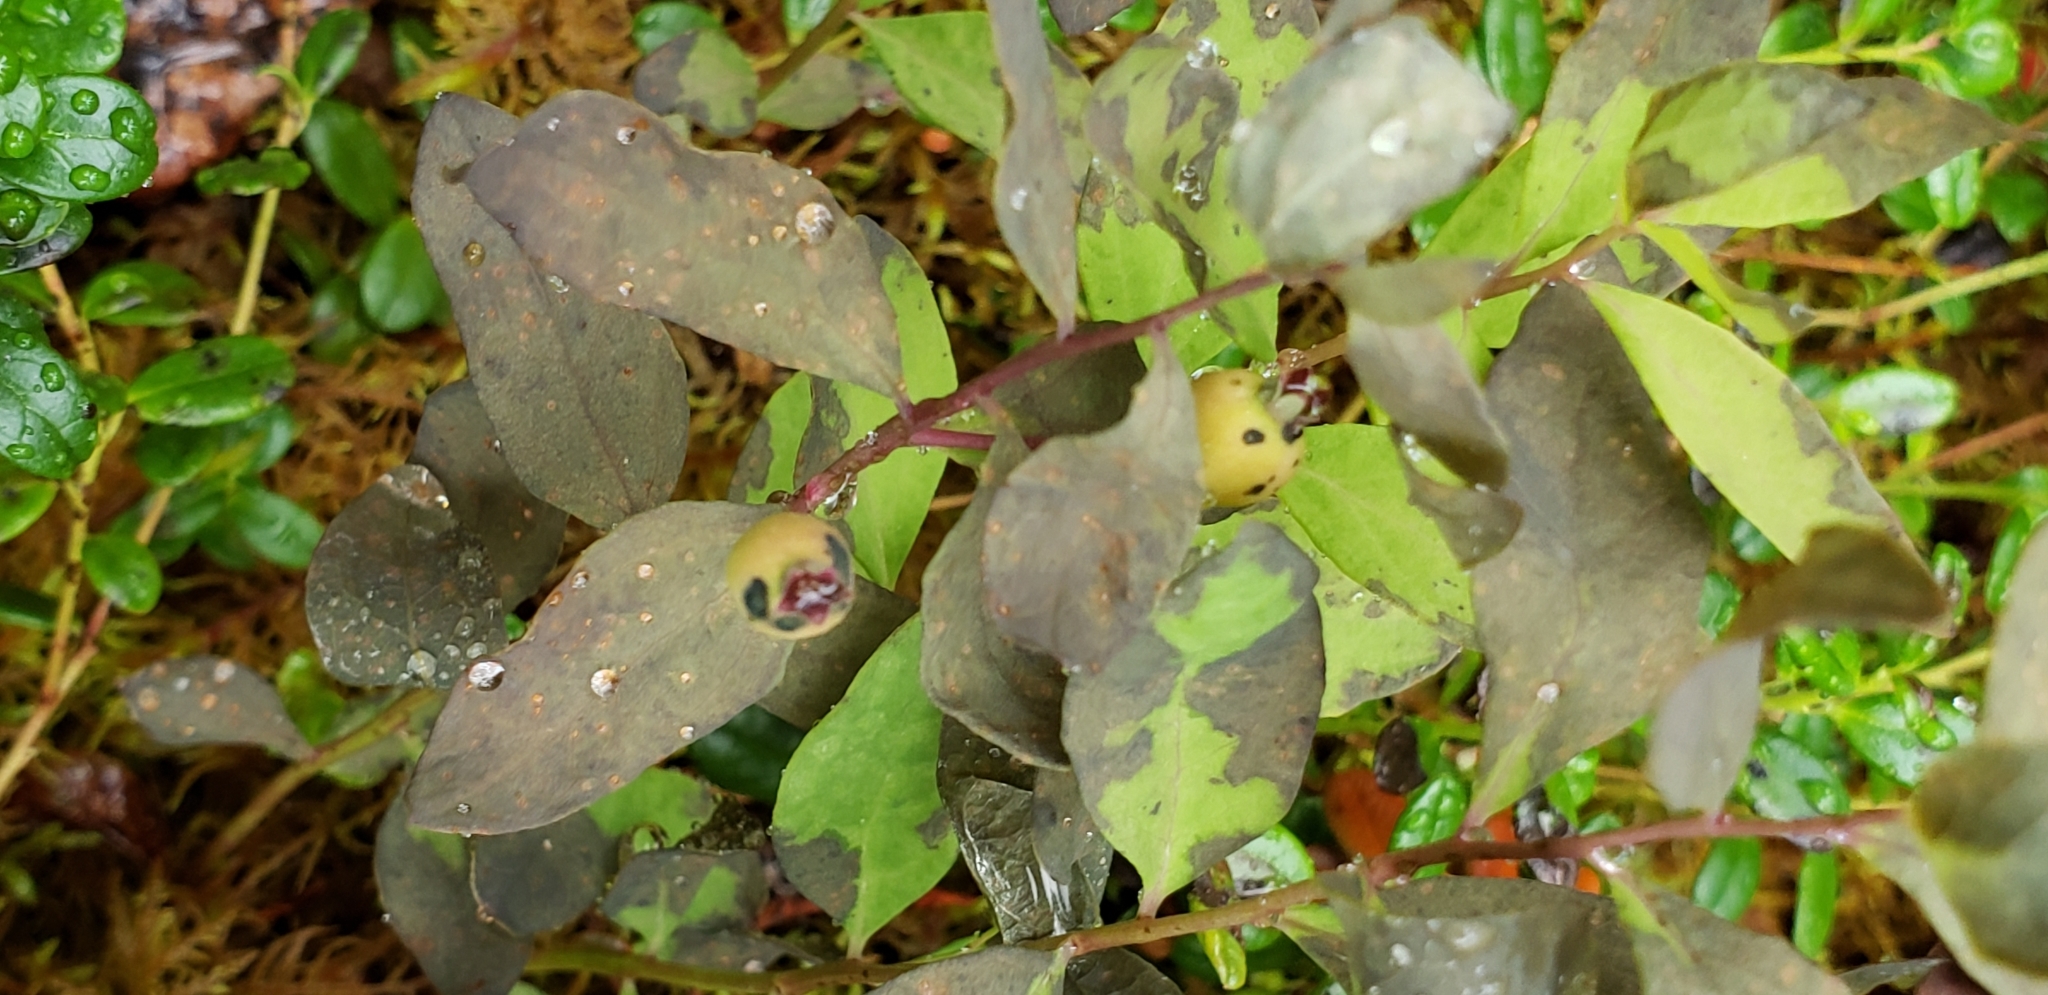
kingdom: Plantae
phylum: Tracheophyta
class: Magnoliopsida
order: Santalales
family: Comandraceae
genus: Geocaulon
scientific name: Geocaulon lividum
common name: Earthberry
